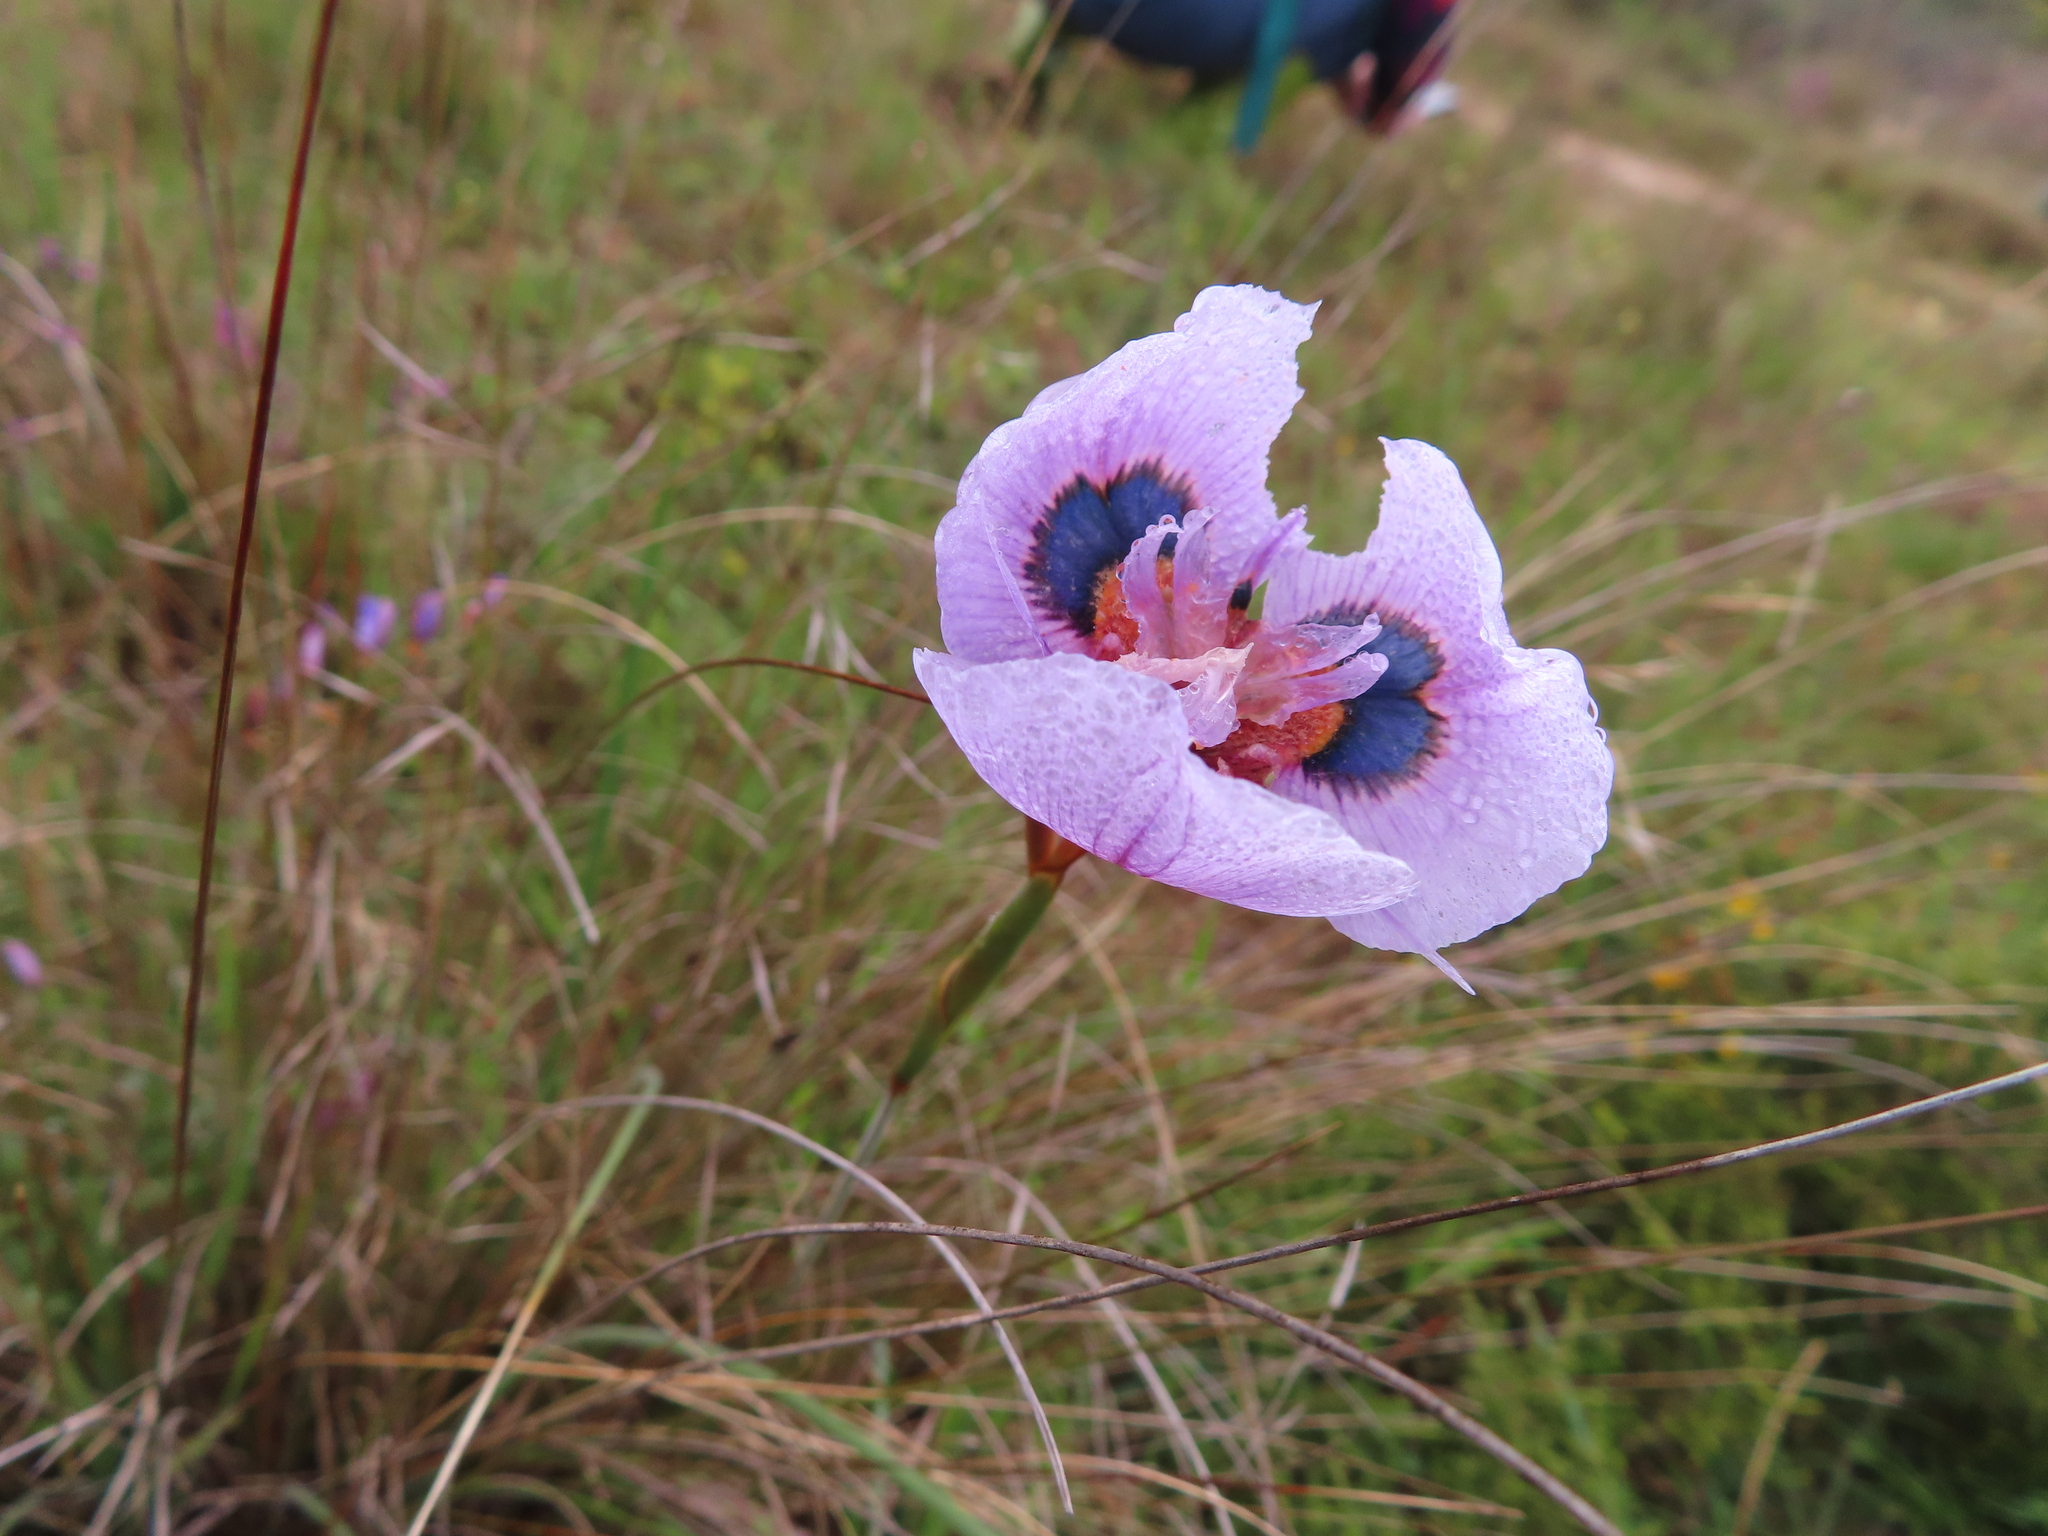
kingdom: Plantae
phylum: Tracheophyta
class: Liliopsida
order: Asparagales
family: Iridaceae
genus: Moraea
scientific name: Moraea villosa
